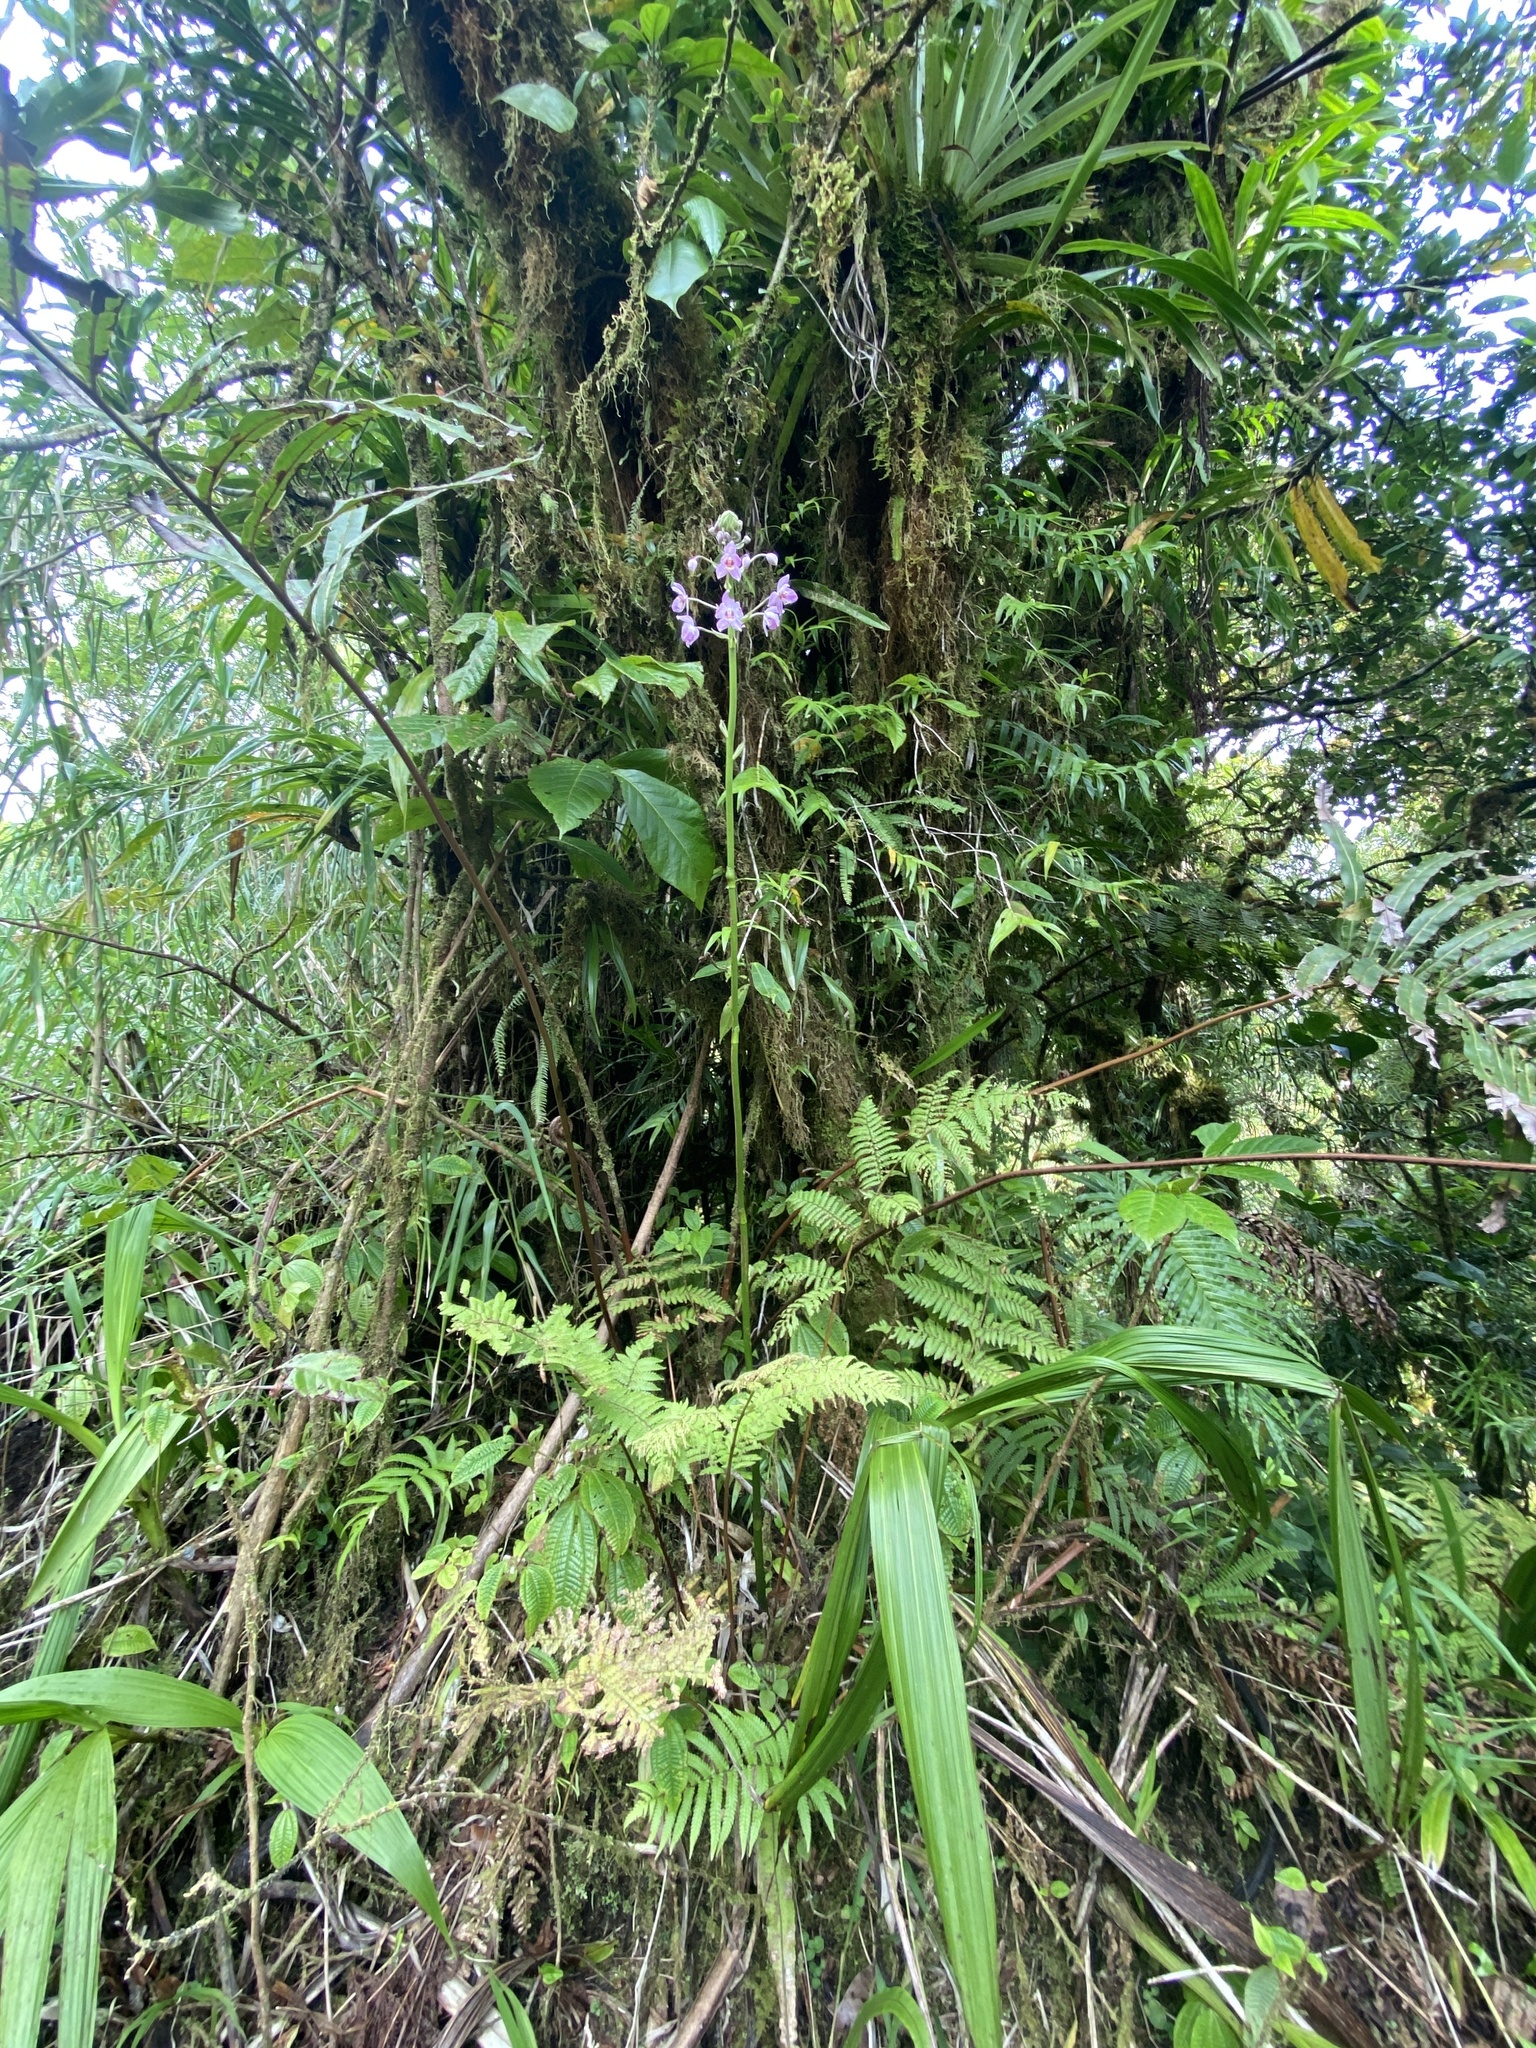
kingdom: Plantae
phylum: Tracheophyta
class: Liliopsida
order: Asparagales
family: Orchidaceae
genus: Spathoglottis
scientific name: Spathoglottis pacifica
